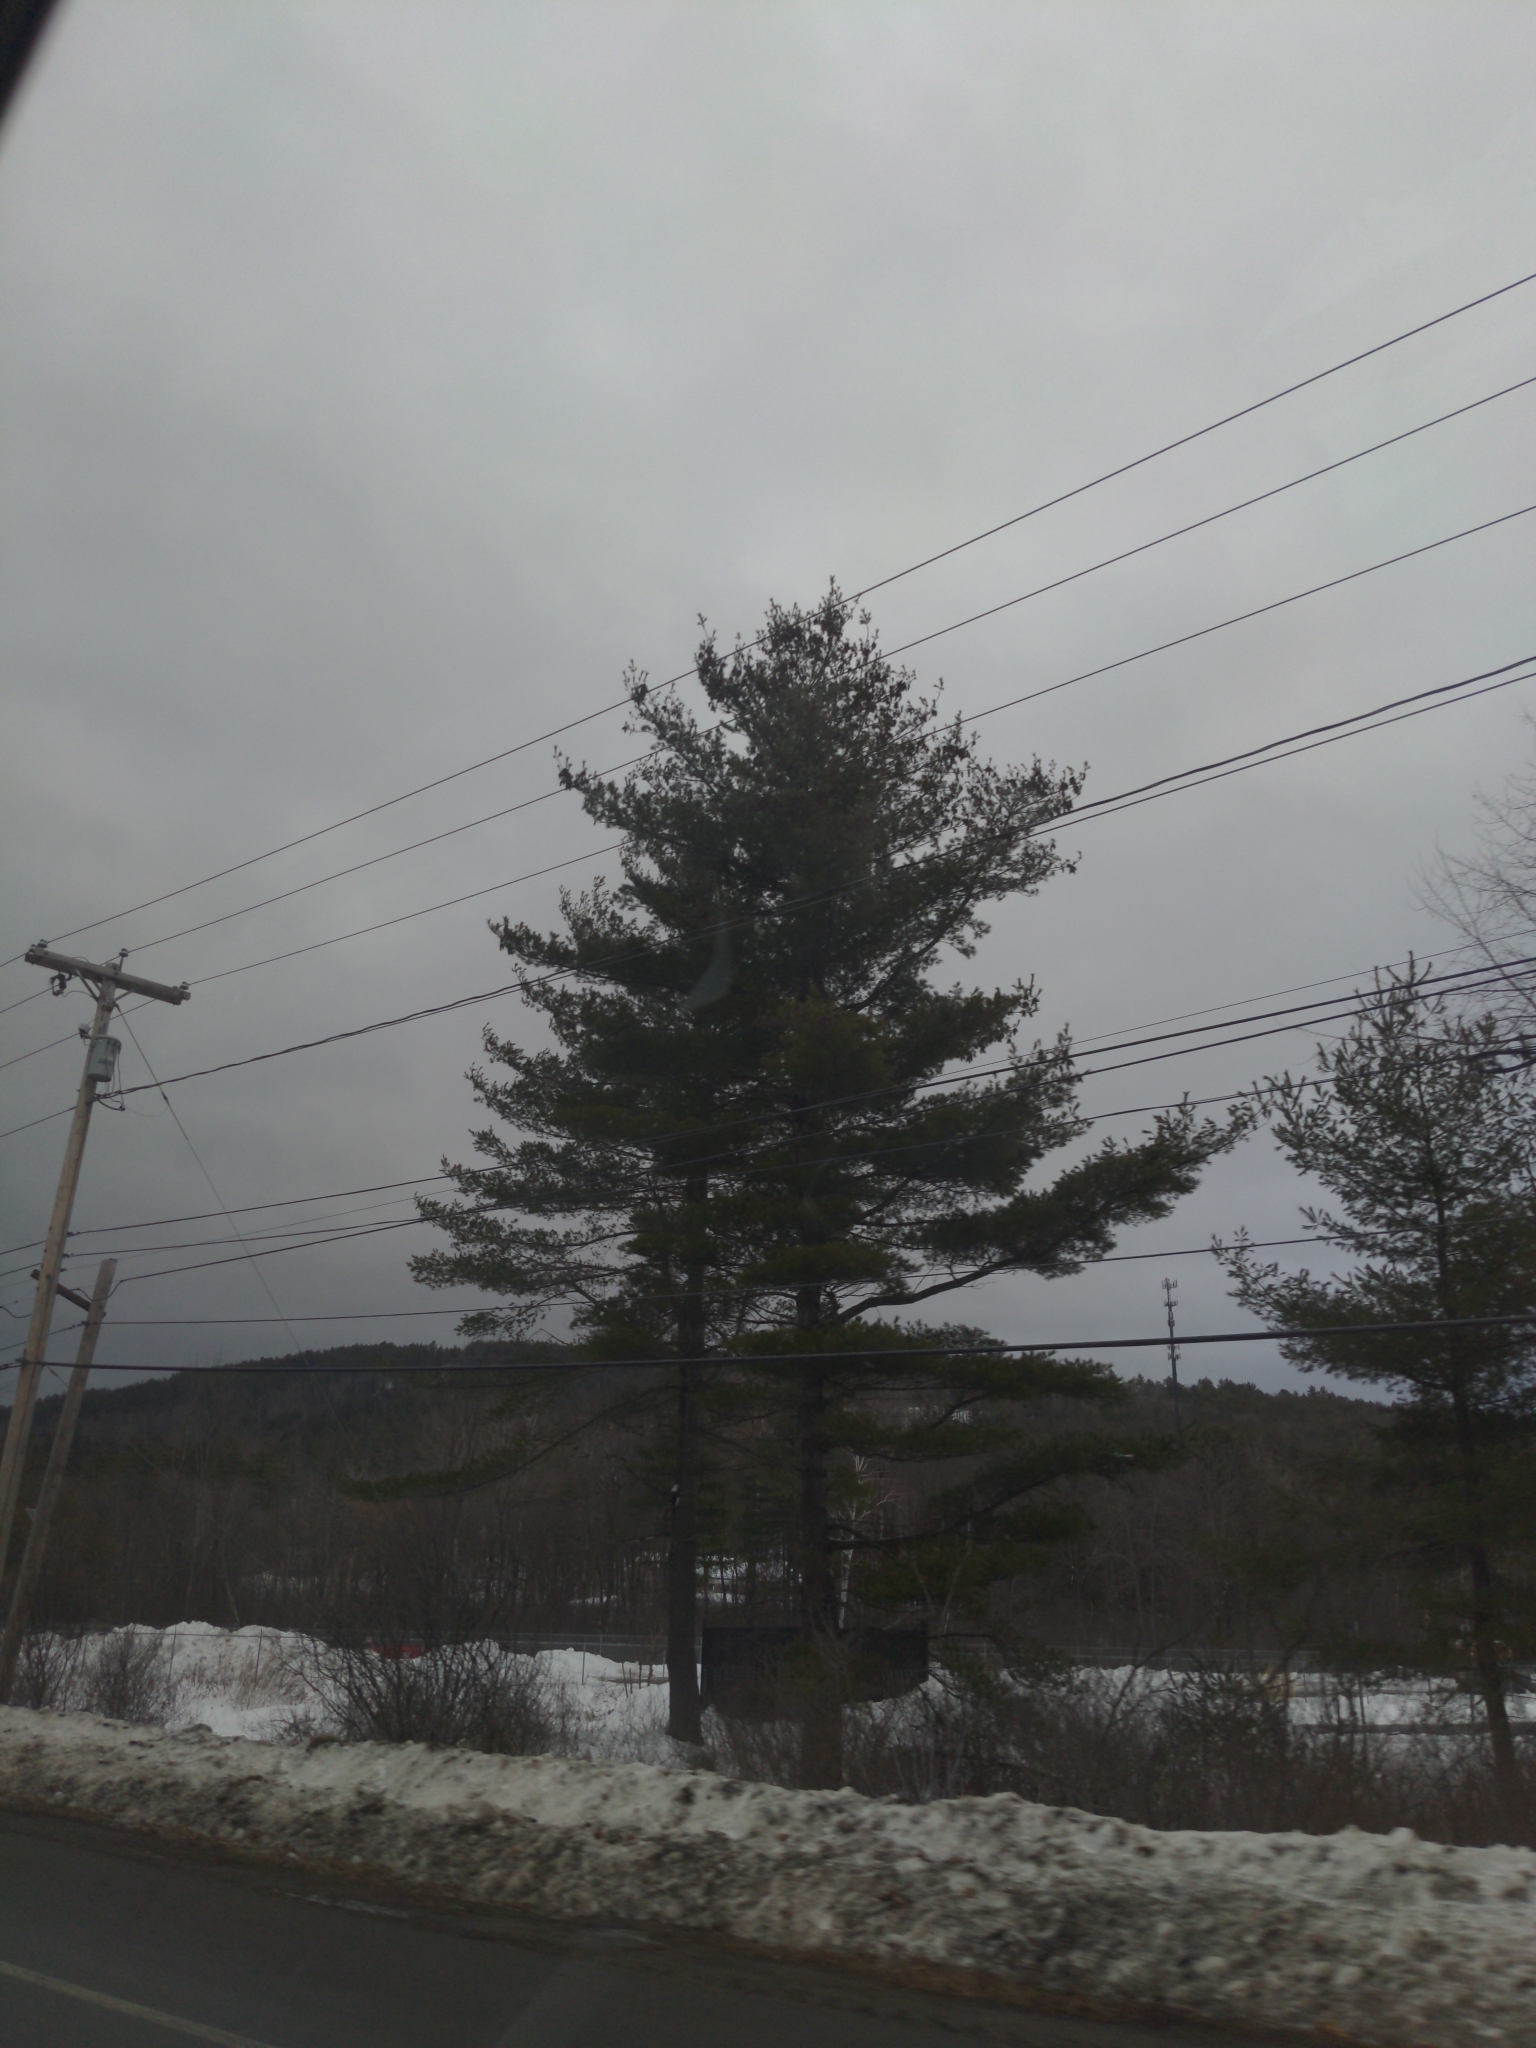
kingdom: Plantae
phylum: Tracheophyta
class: Pinopsida
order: Pinales
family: Pinaceae
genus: Pinus
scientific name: Pinus strobus
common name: Weymouth pine
